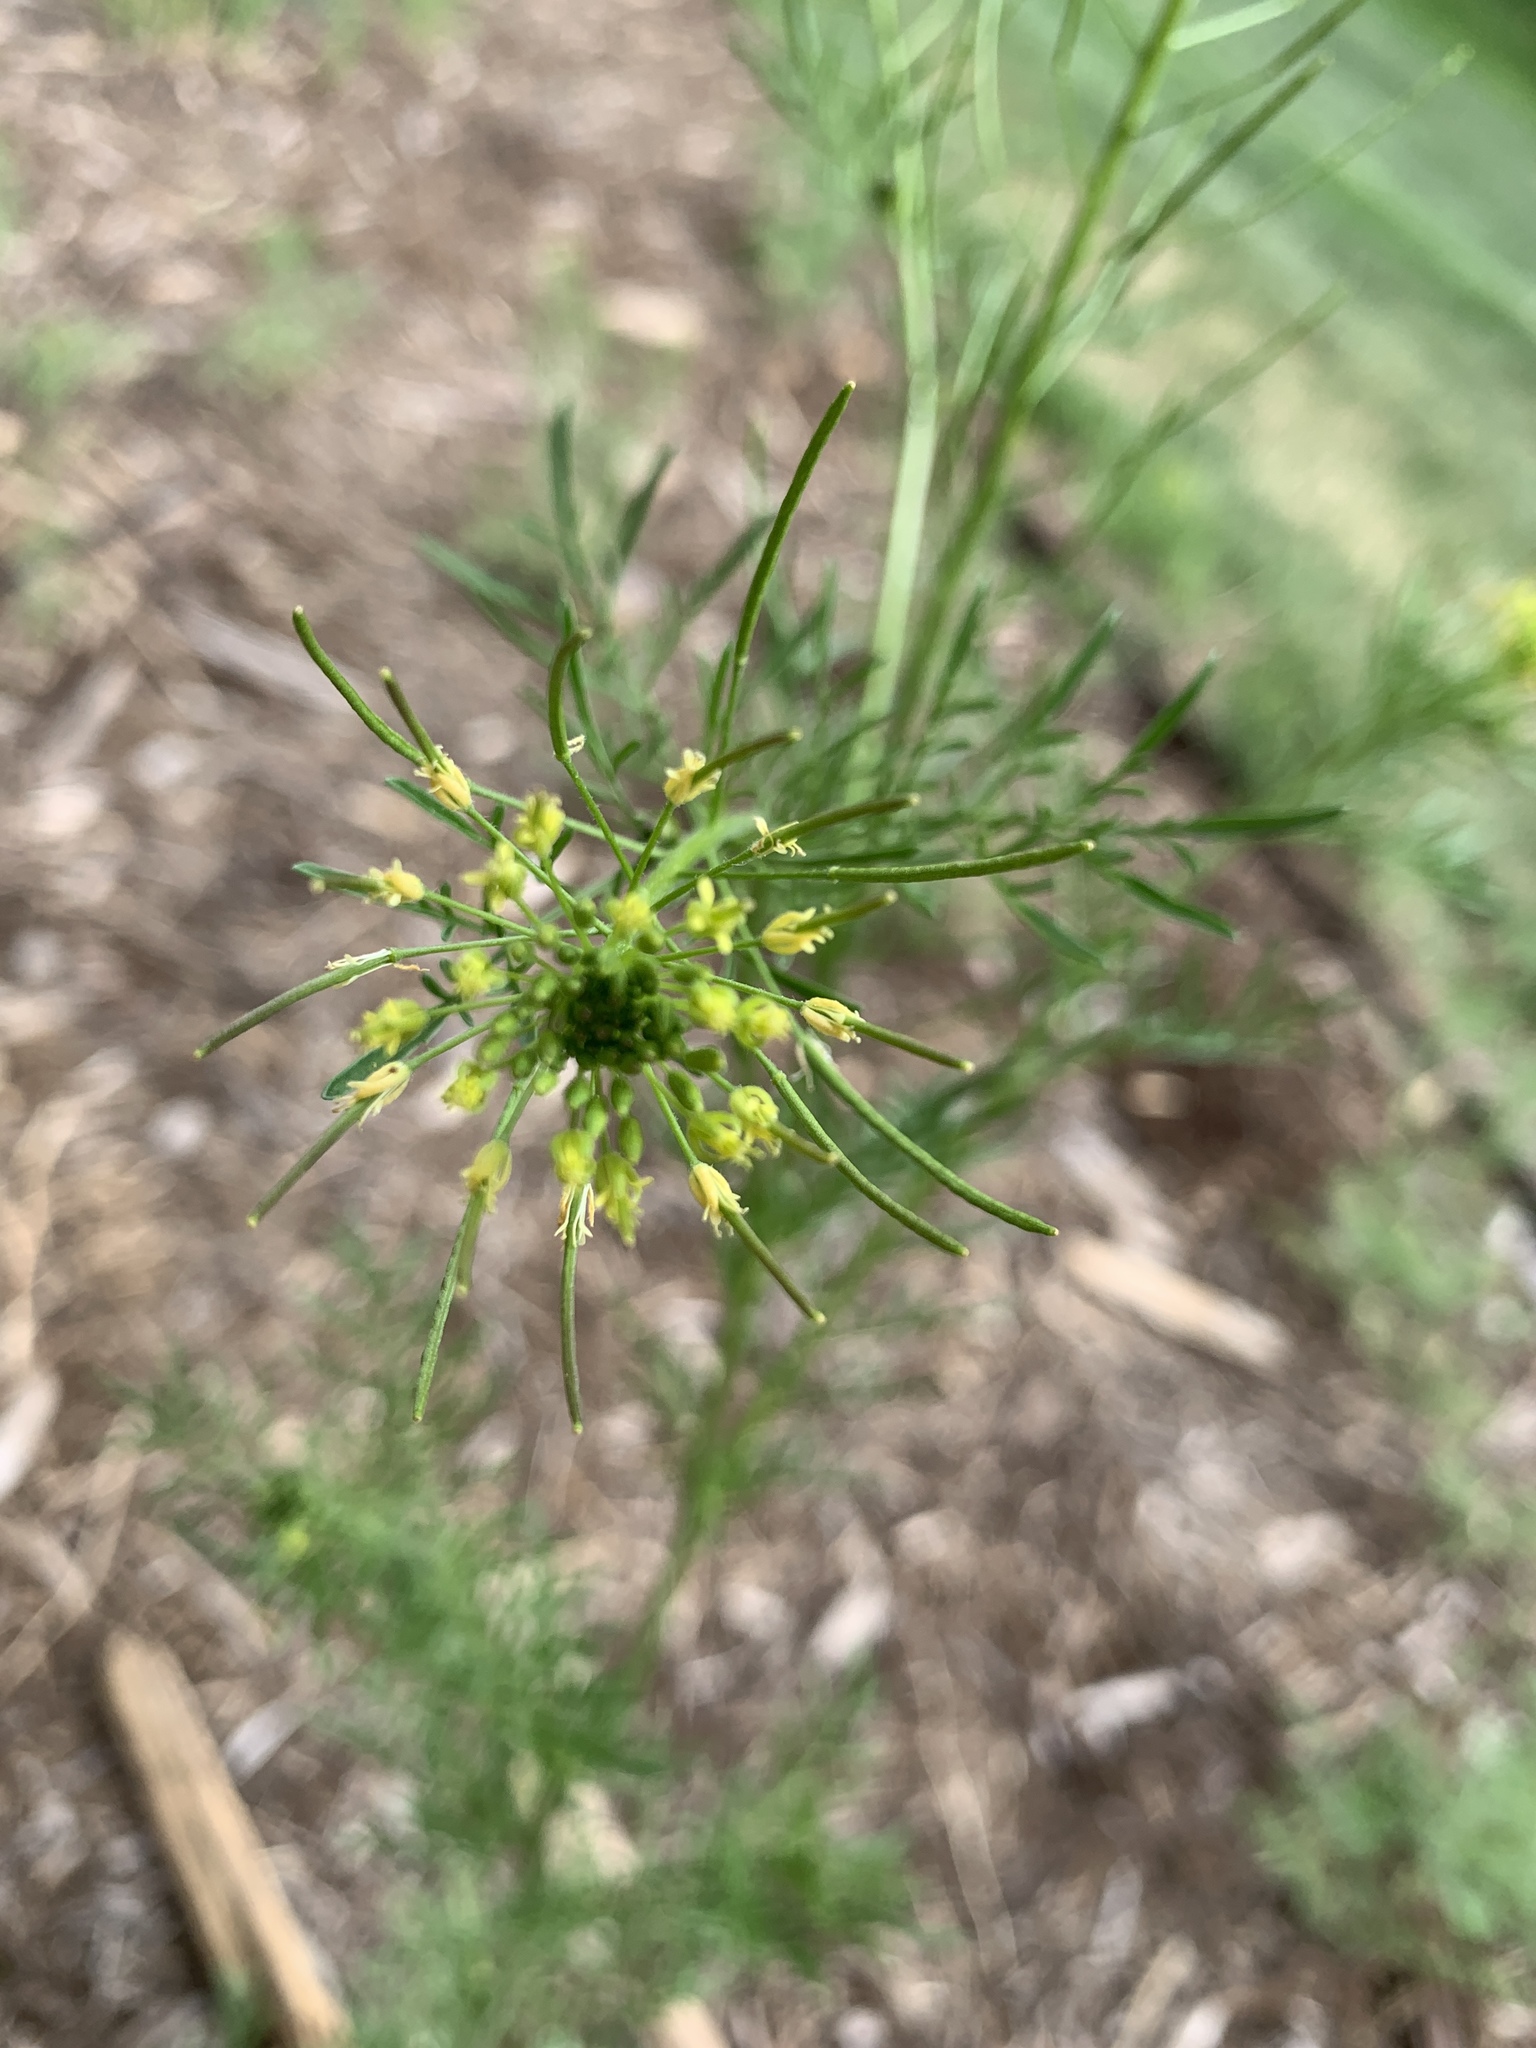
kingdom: Plantae
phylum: Tracheophyta
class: Magnoliopsida
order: Brassicales
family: Brassicaceae
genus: Descurainia
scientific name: Descurainia sophia
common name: Flixweed
